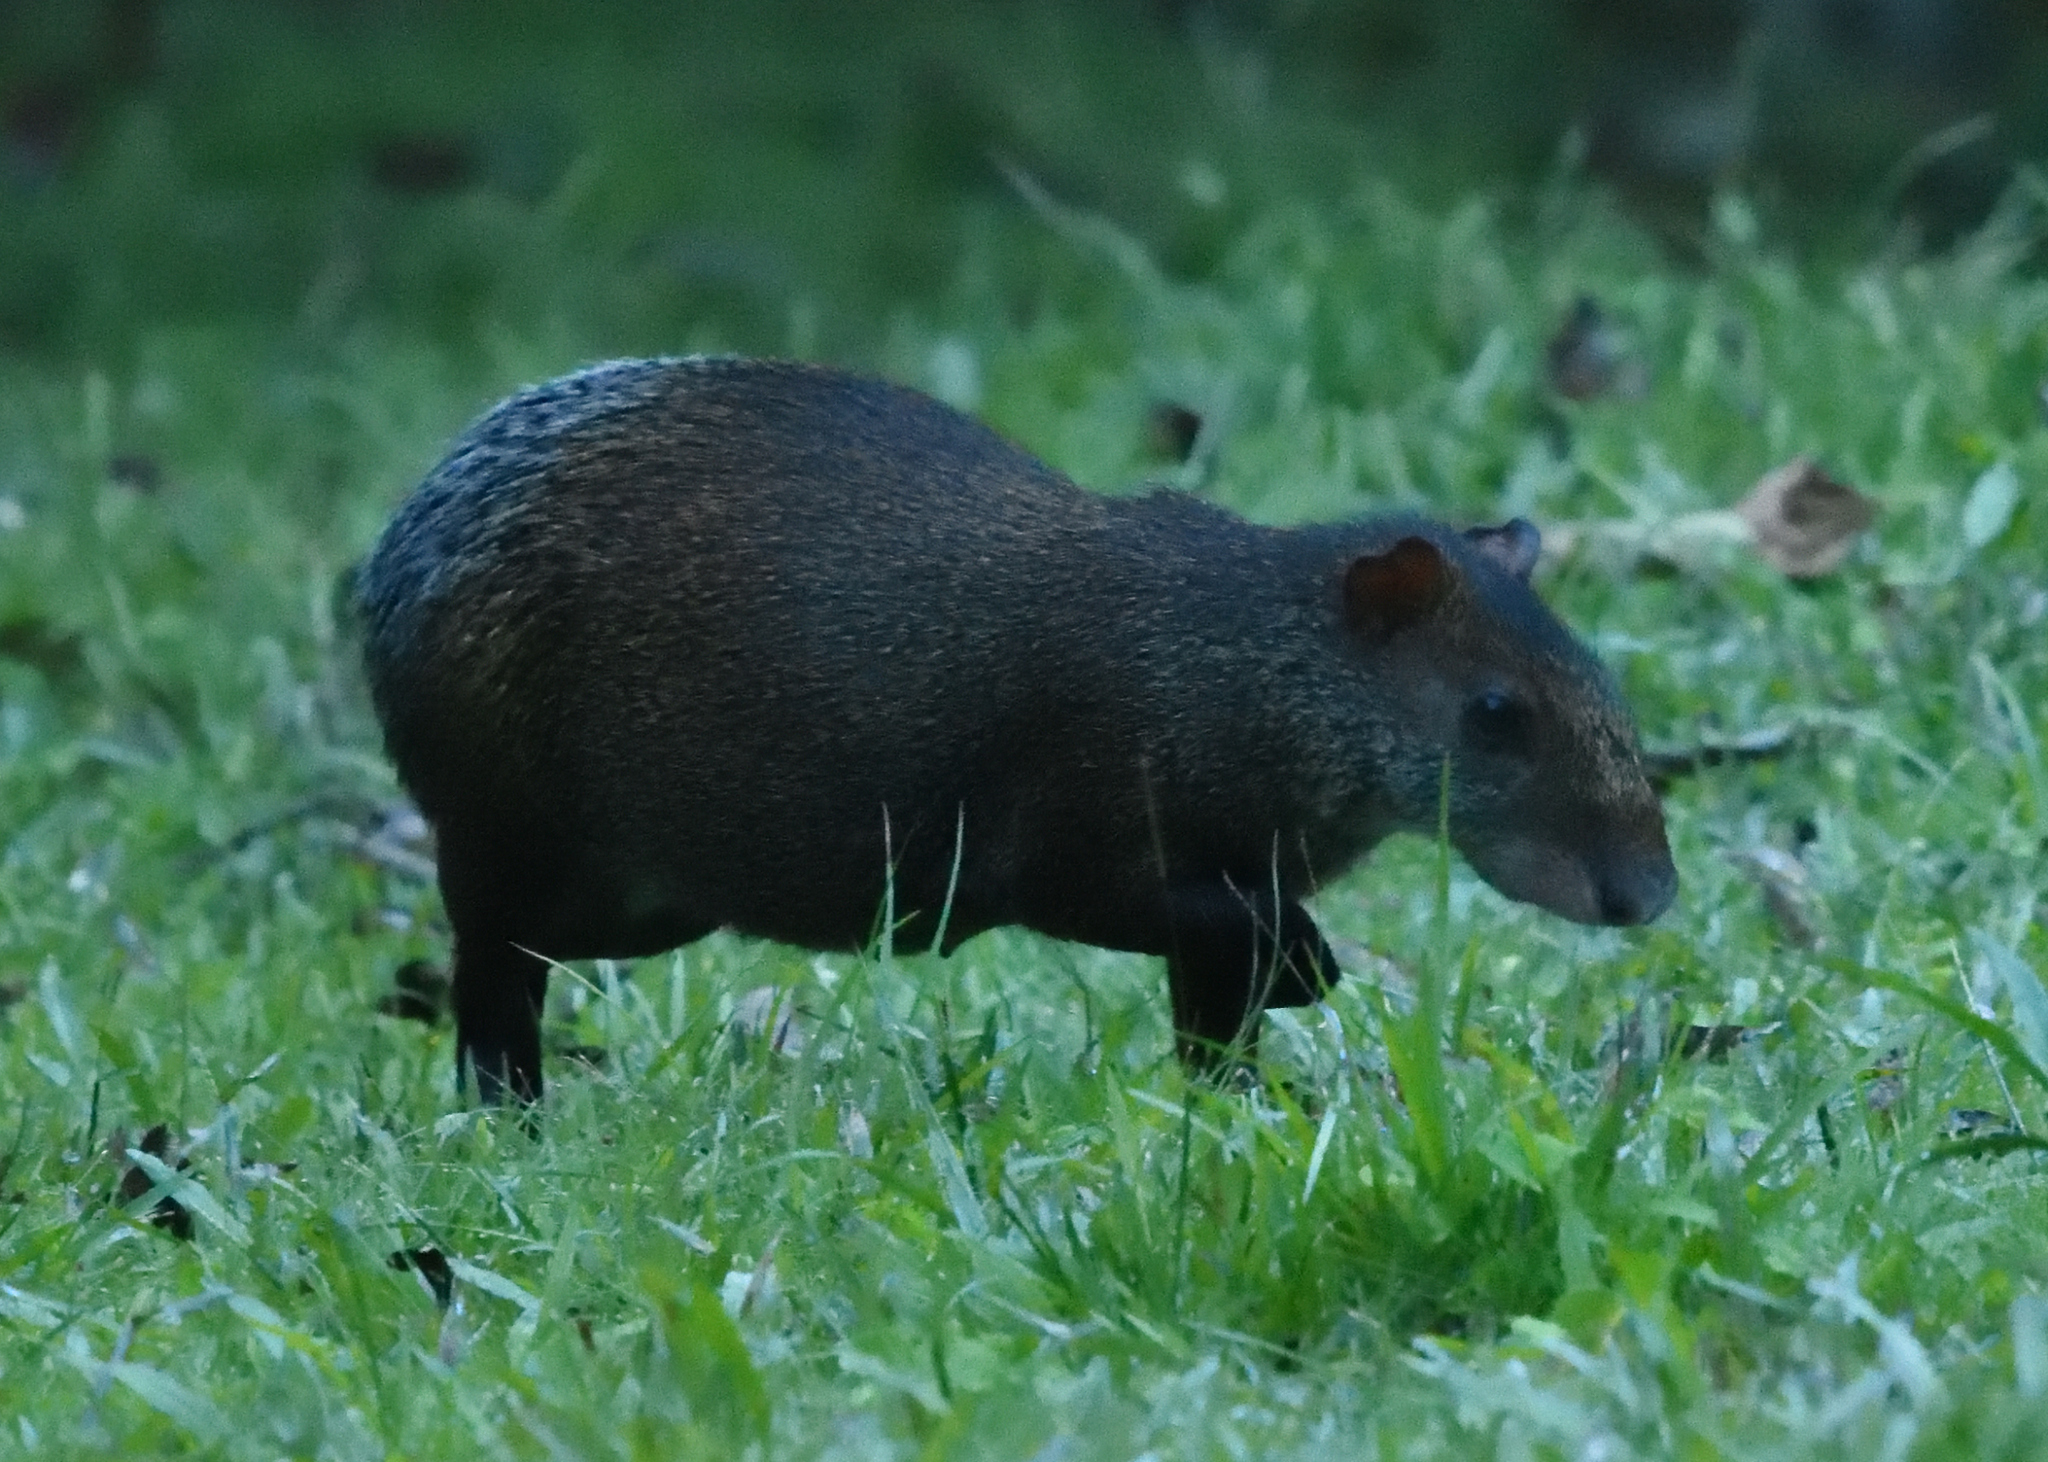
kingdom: Animalia
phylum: Chordata
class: Mammalia
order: Rodentia
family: Dasyproctidae
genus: Dasyprocta
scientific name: Dasyprocta fuliginosa
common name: Black agouti
